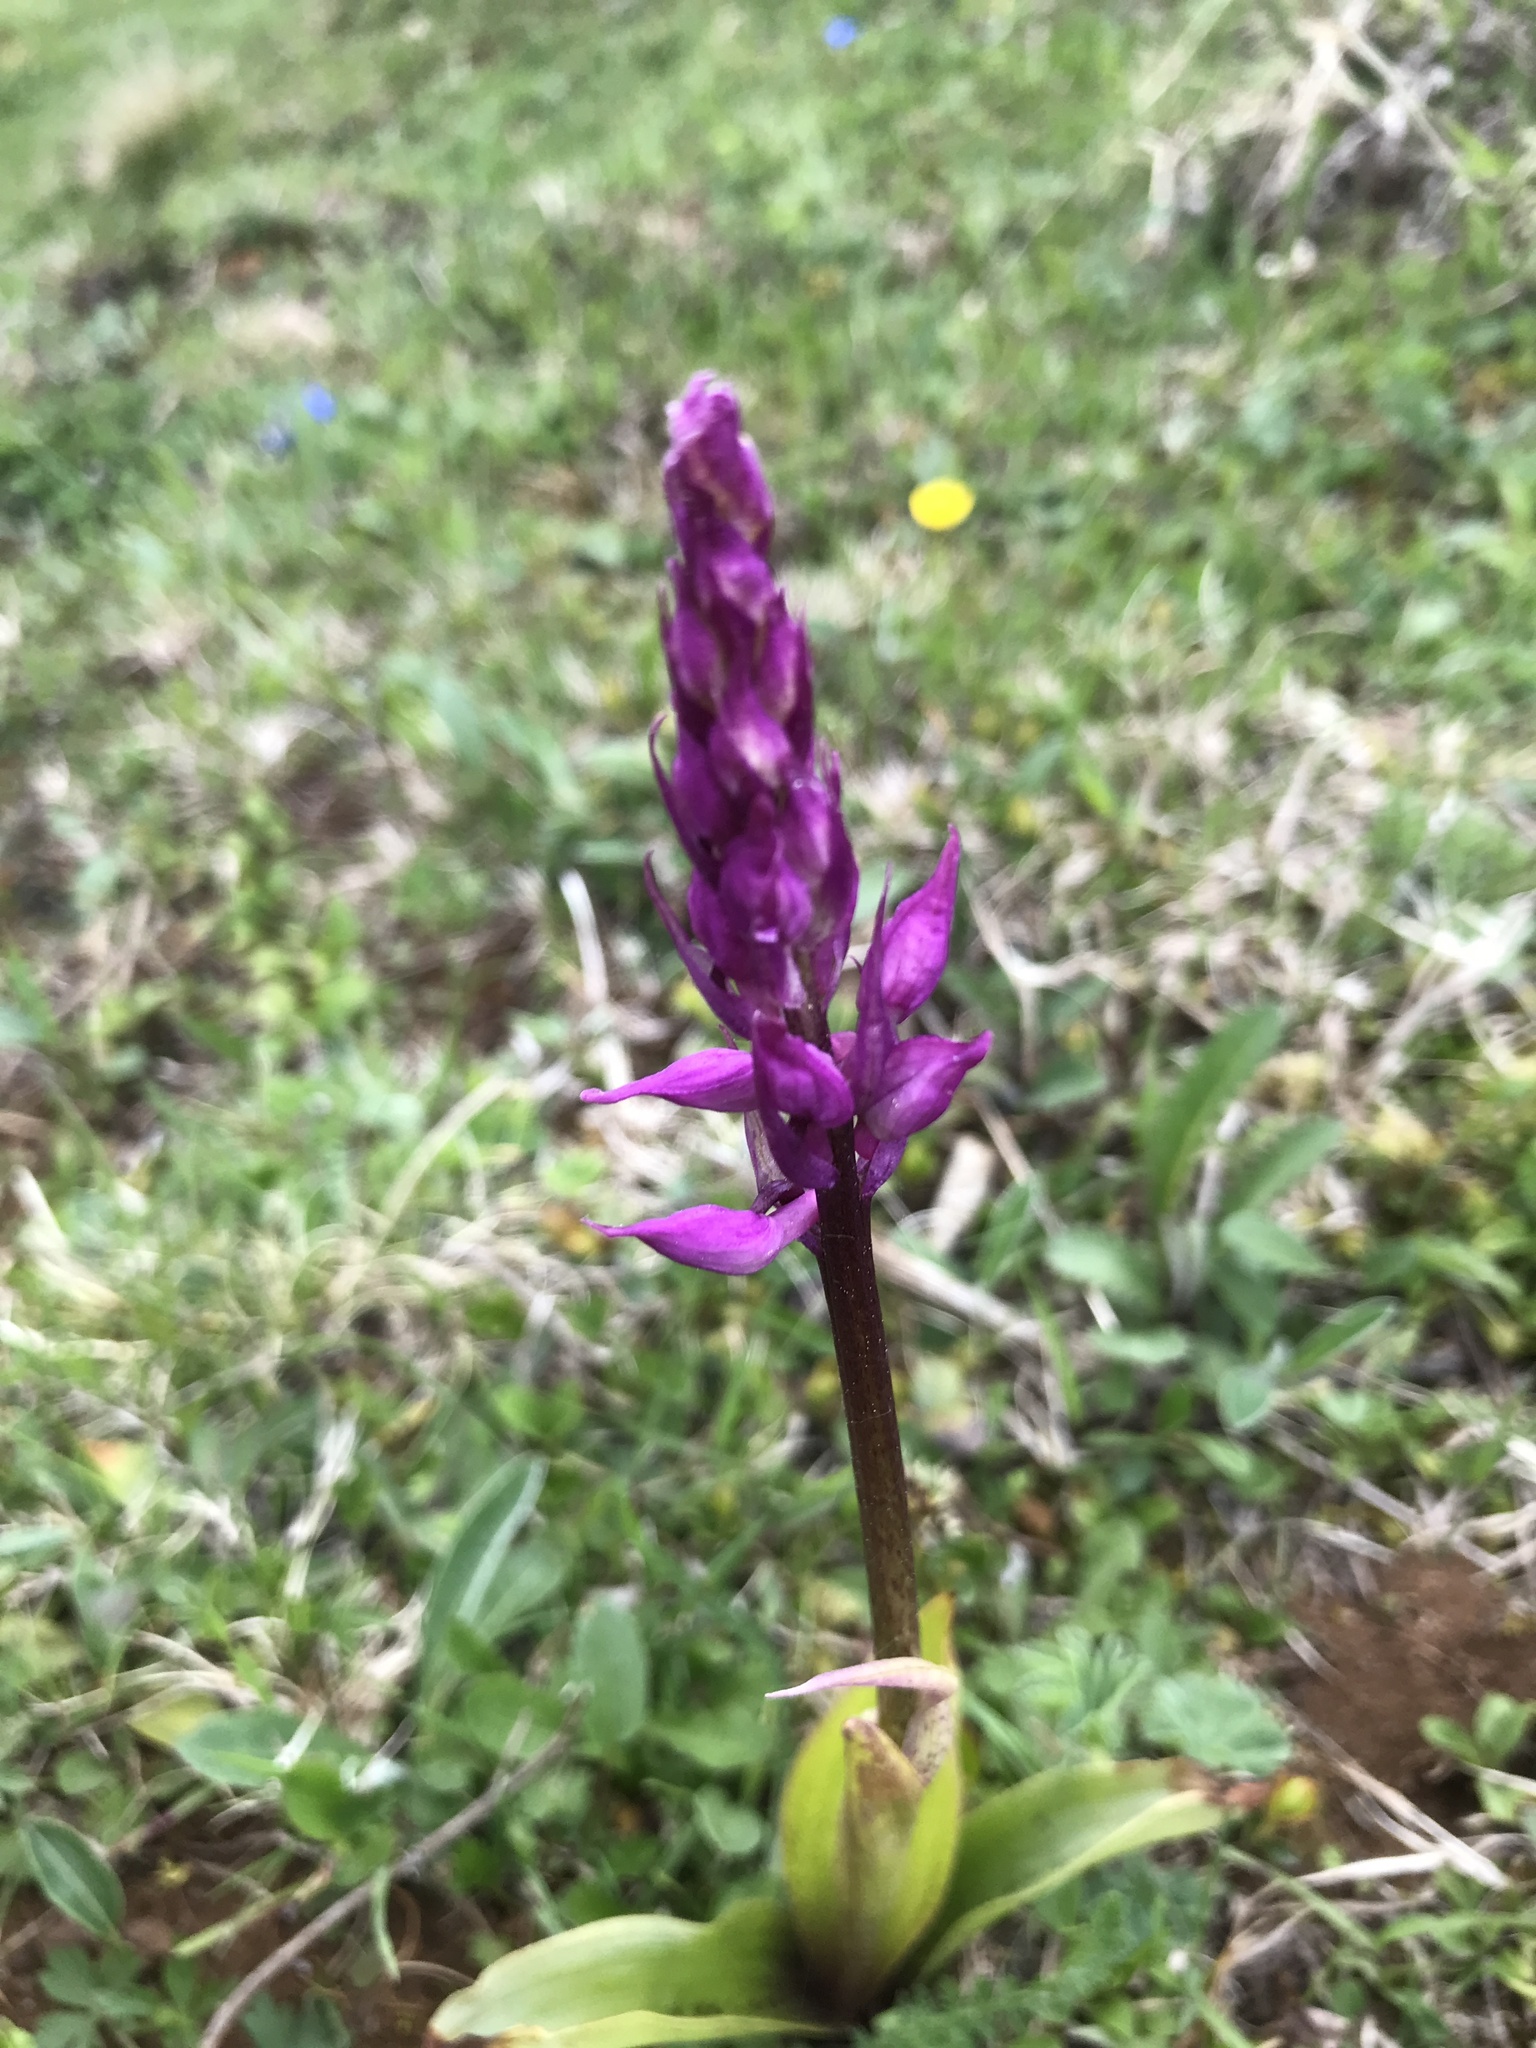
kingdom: Plantae
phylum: Tracheophyta
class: Liliopsida
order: Asparagales
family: Orchidaceae
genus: Orchis
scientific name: Orchis mascula
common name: Early-purple orchid
